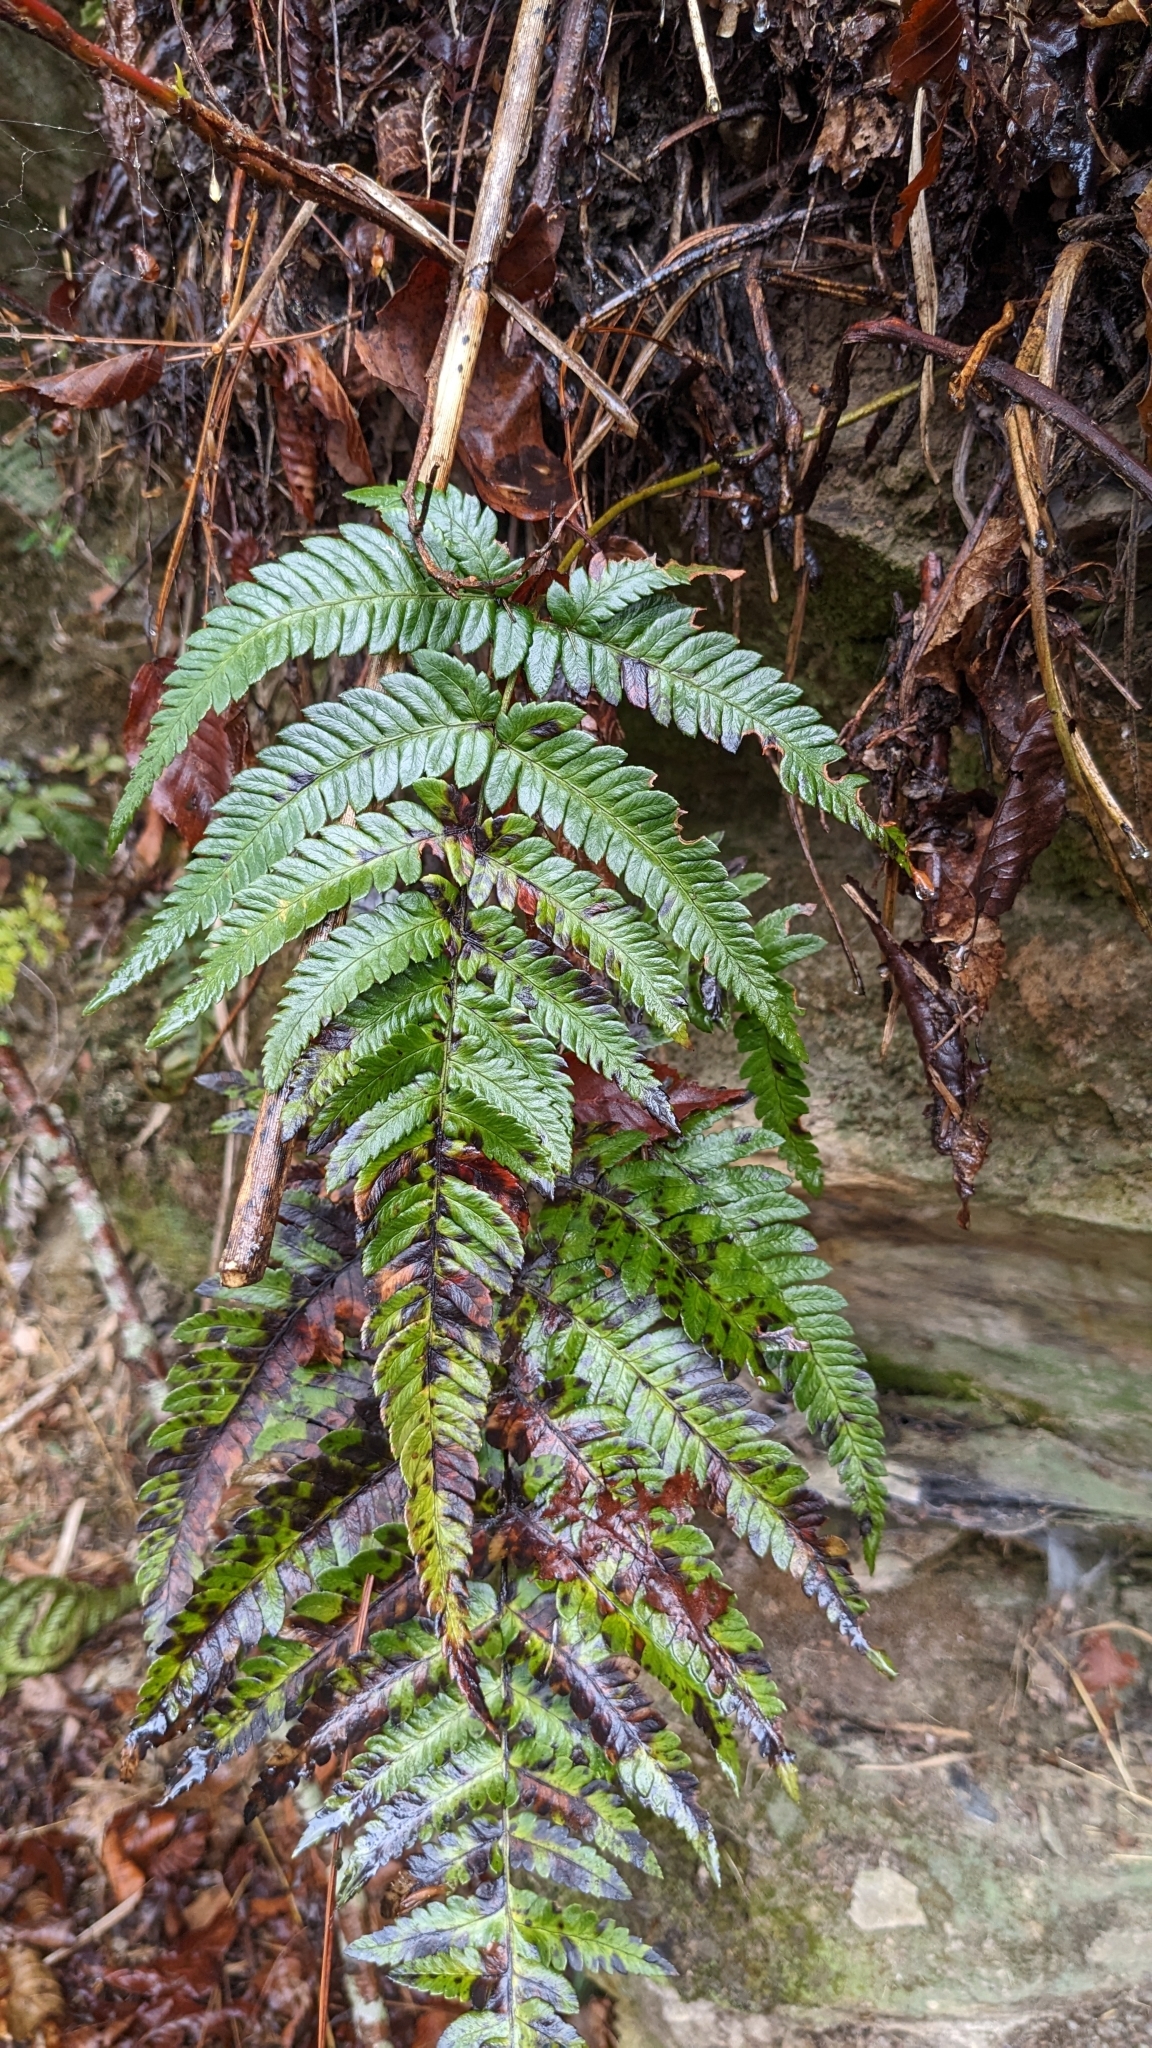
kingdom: Plantae
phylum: Tracheophyta
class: Polypodiopsida
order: Polypodiales
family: Dryopteridaceae
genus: Dryopteris
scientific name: Dryopteris varia
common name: Japanese holly fern
